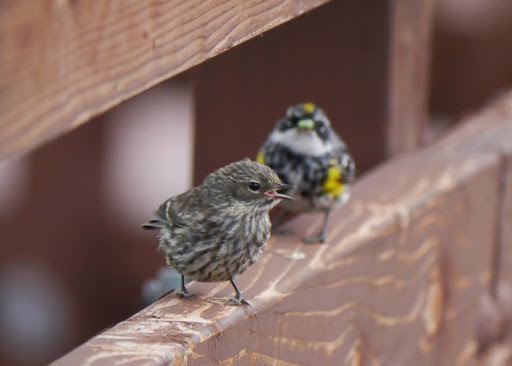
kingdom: Animalia
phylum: Chordata
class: Aves
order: Passeriformes
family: Parulidae
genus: Setophaga
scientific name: Setophaga coronata
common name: Myrtle warbler
